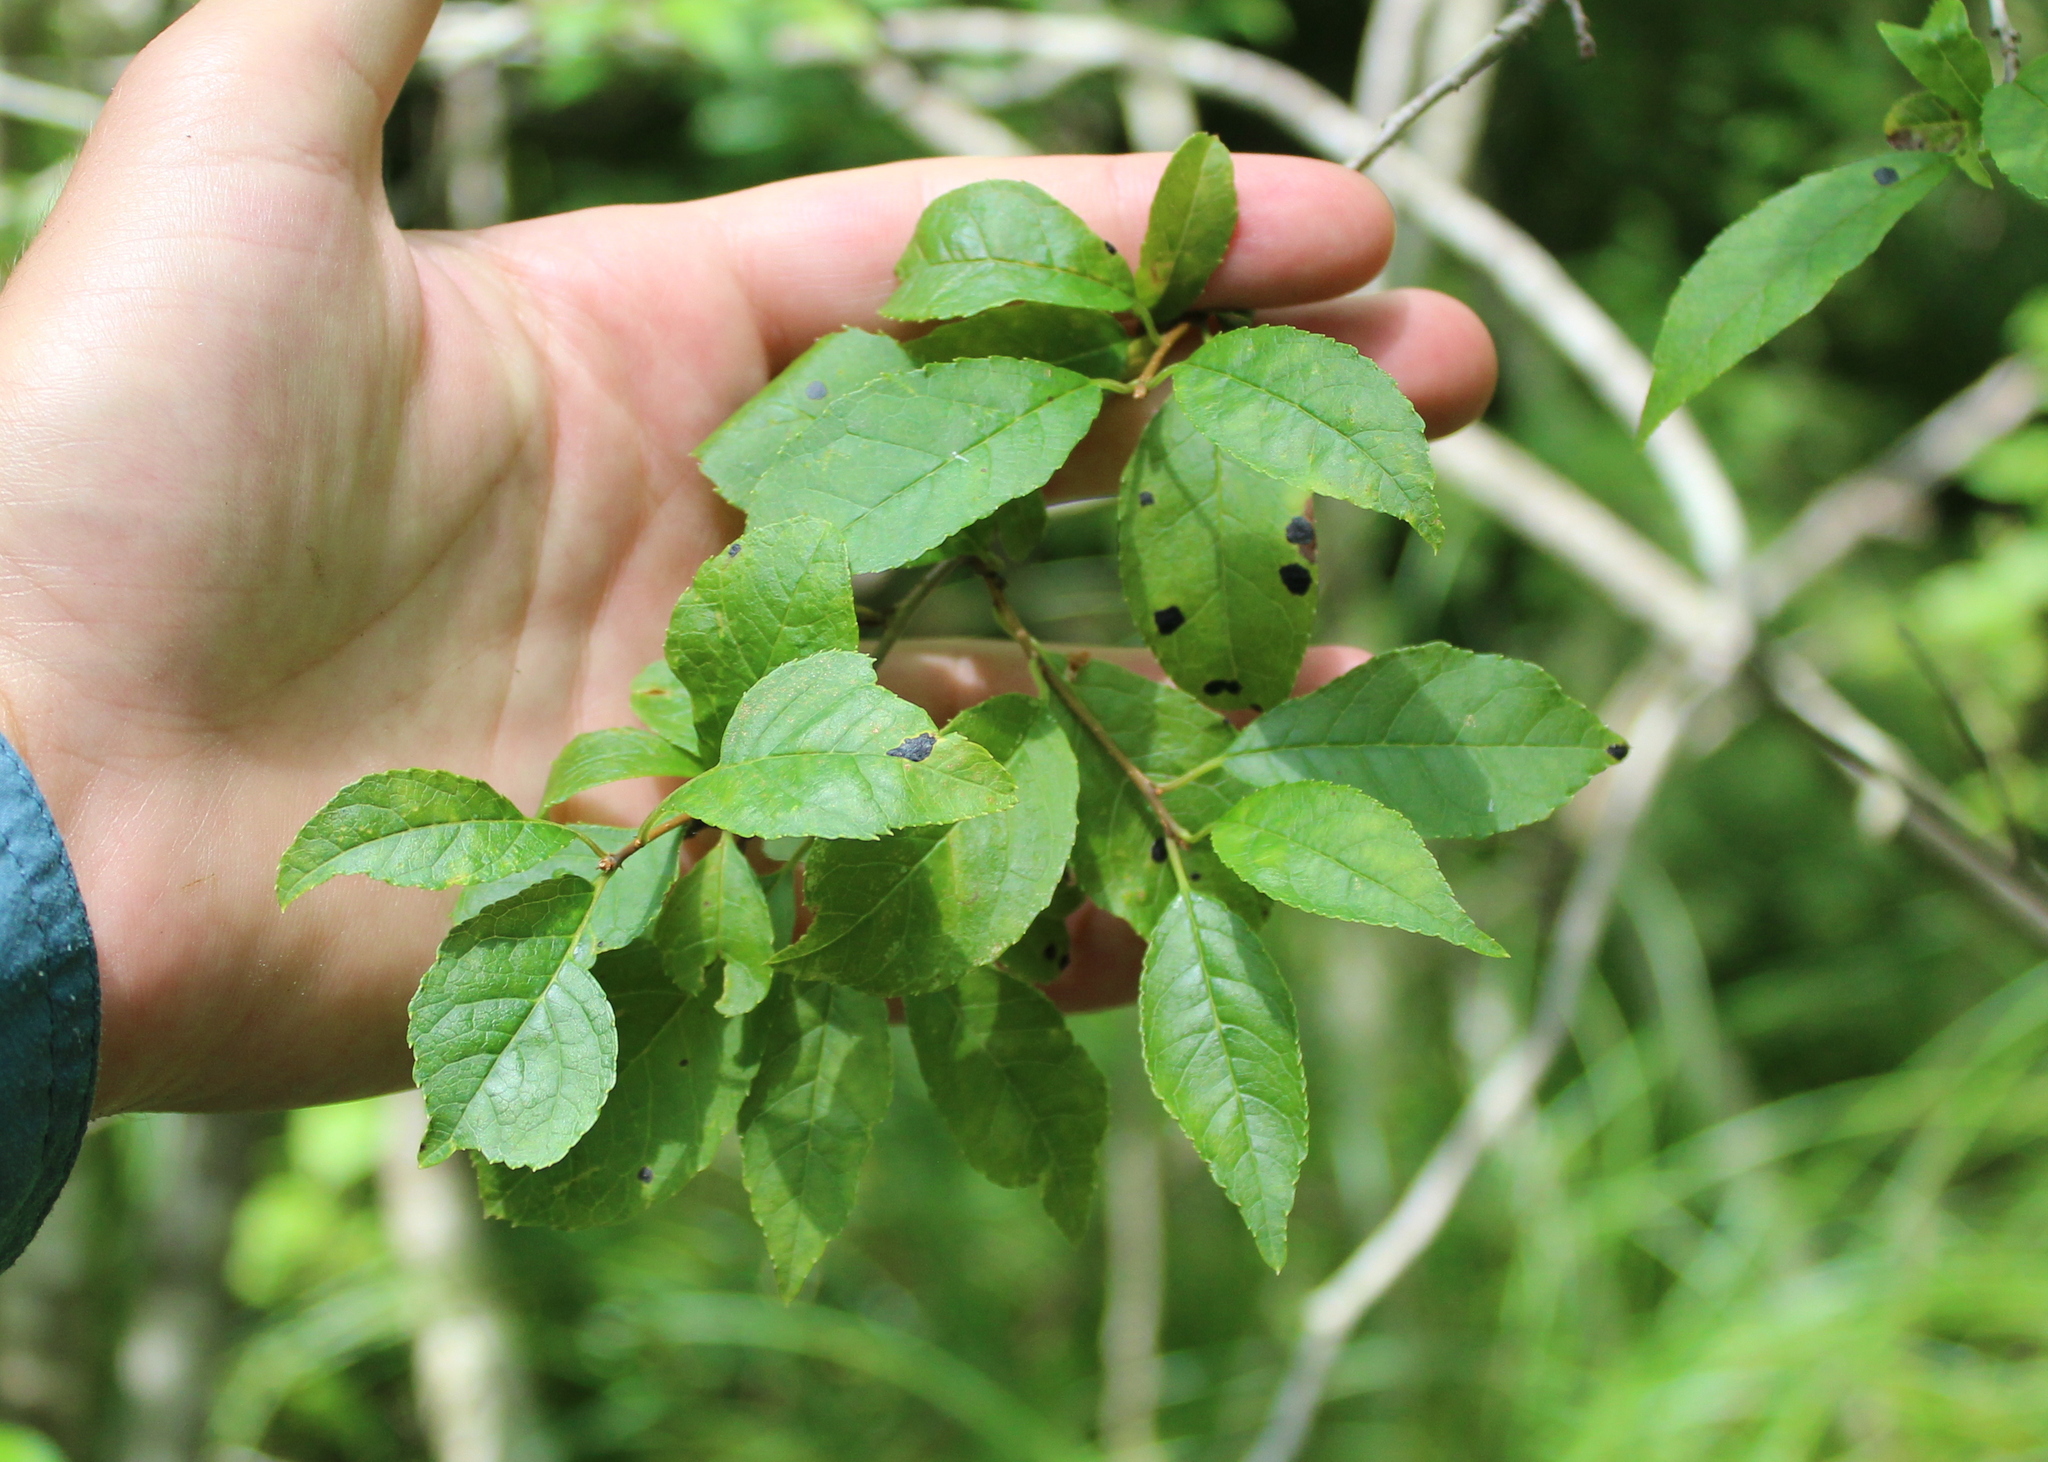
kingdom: Plantae
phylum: Tracheophyta
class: Magnoliopsida
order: Aquifoliales
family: Aquifoliaceae
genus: Ilex
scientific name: Ilex verticillata
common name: Virginia winterberry
